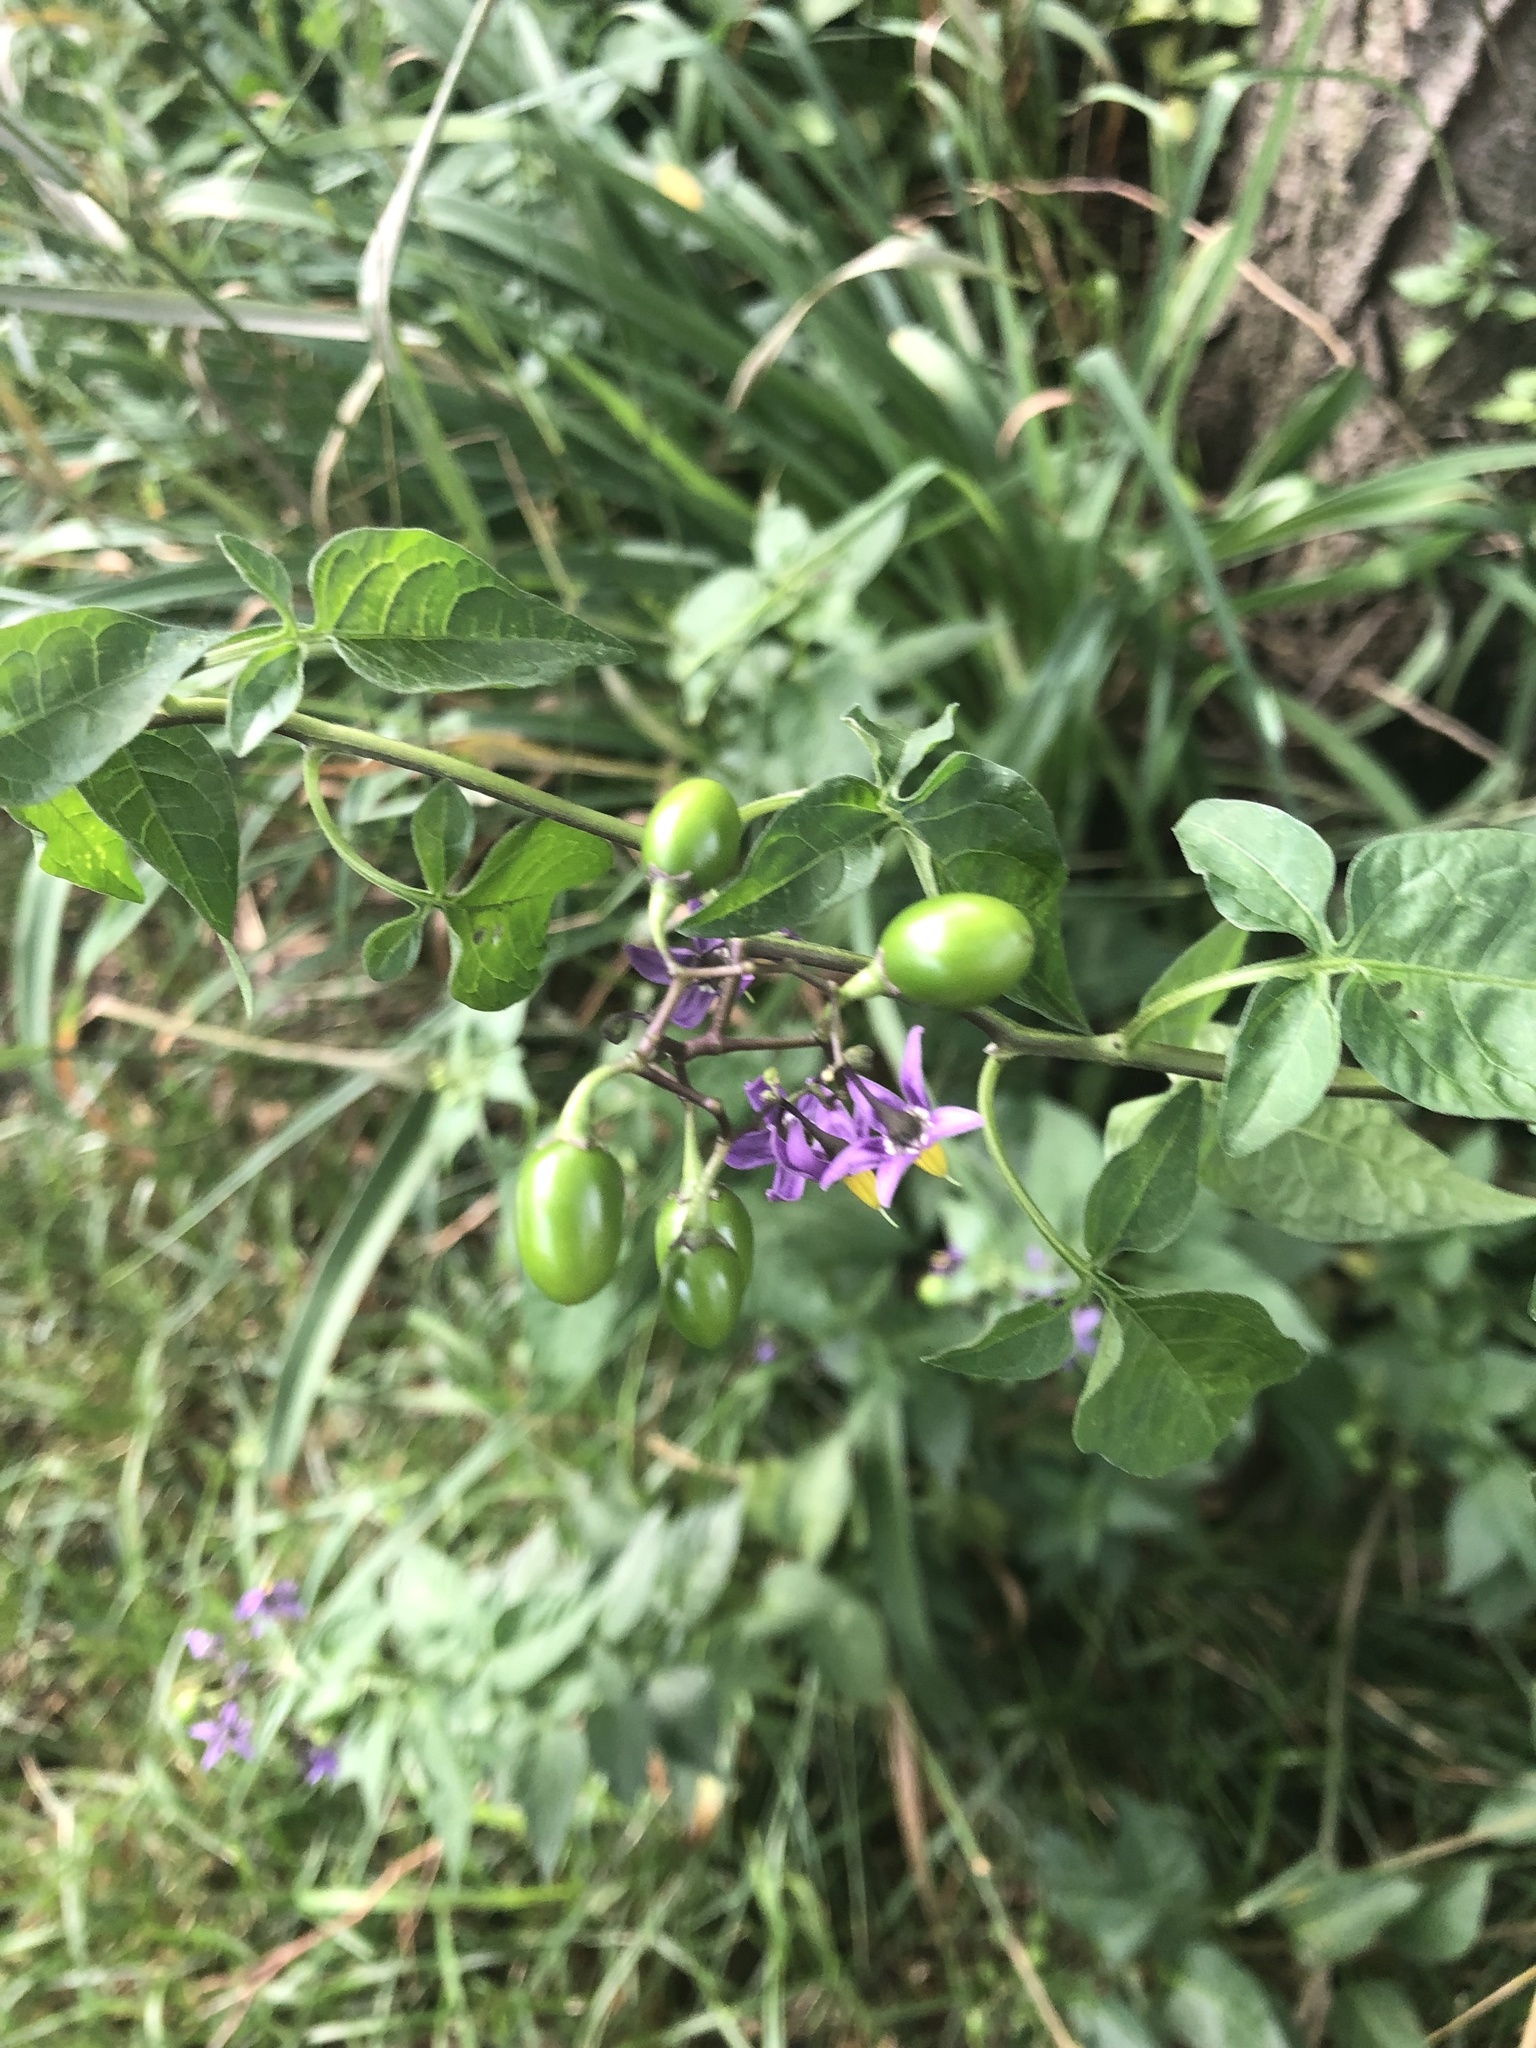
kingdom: Plantae
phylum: Tracheophyta
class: Magnoliopsida
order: Solanales
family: Solanaceae
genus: Solanum
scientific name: Solanum dulcamara
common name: Climbing nightshade
